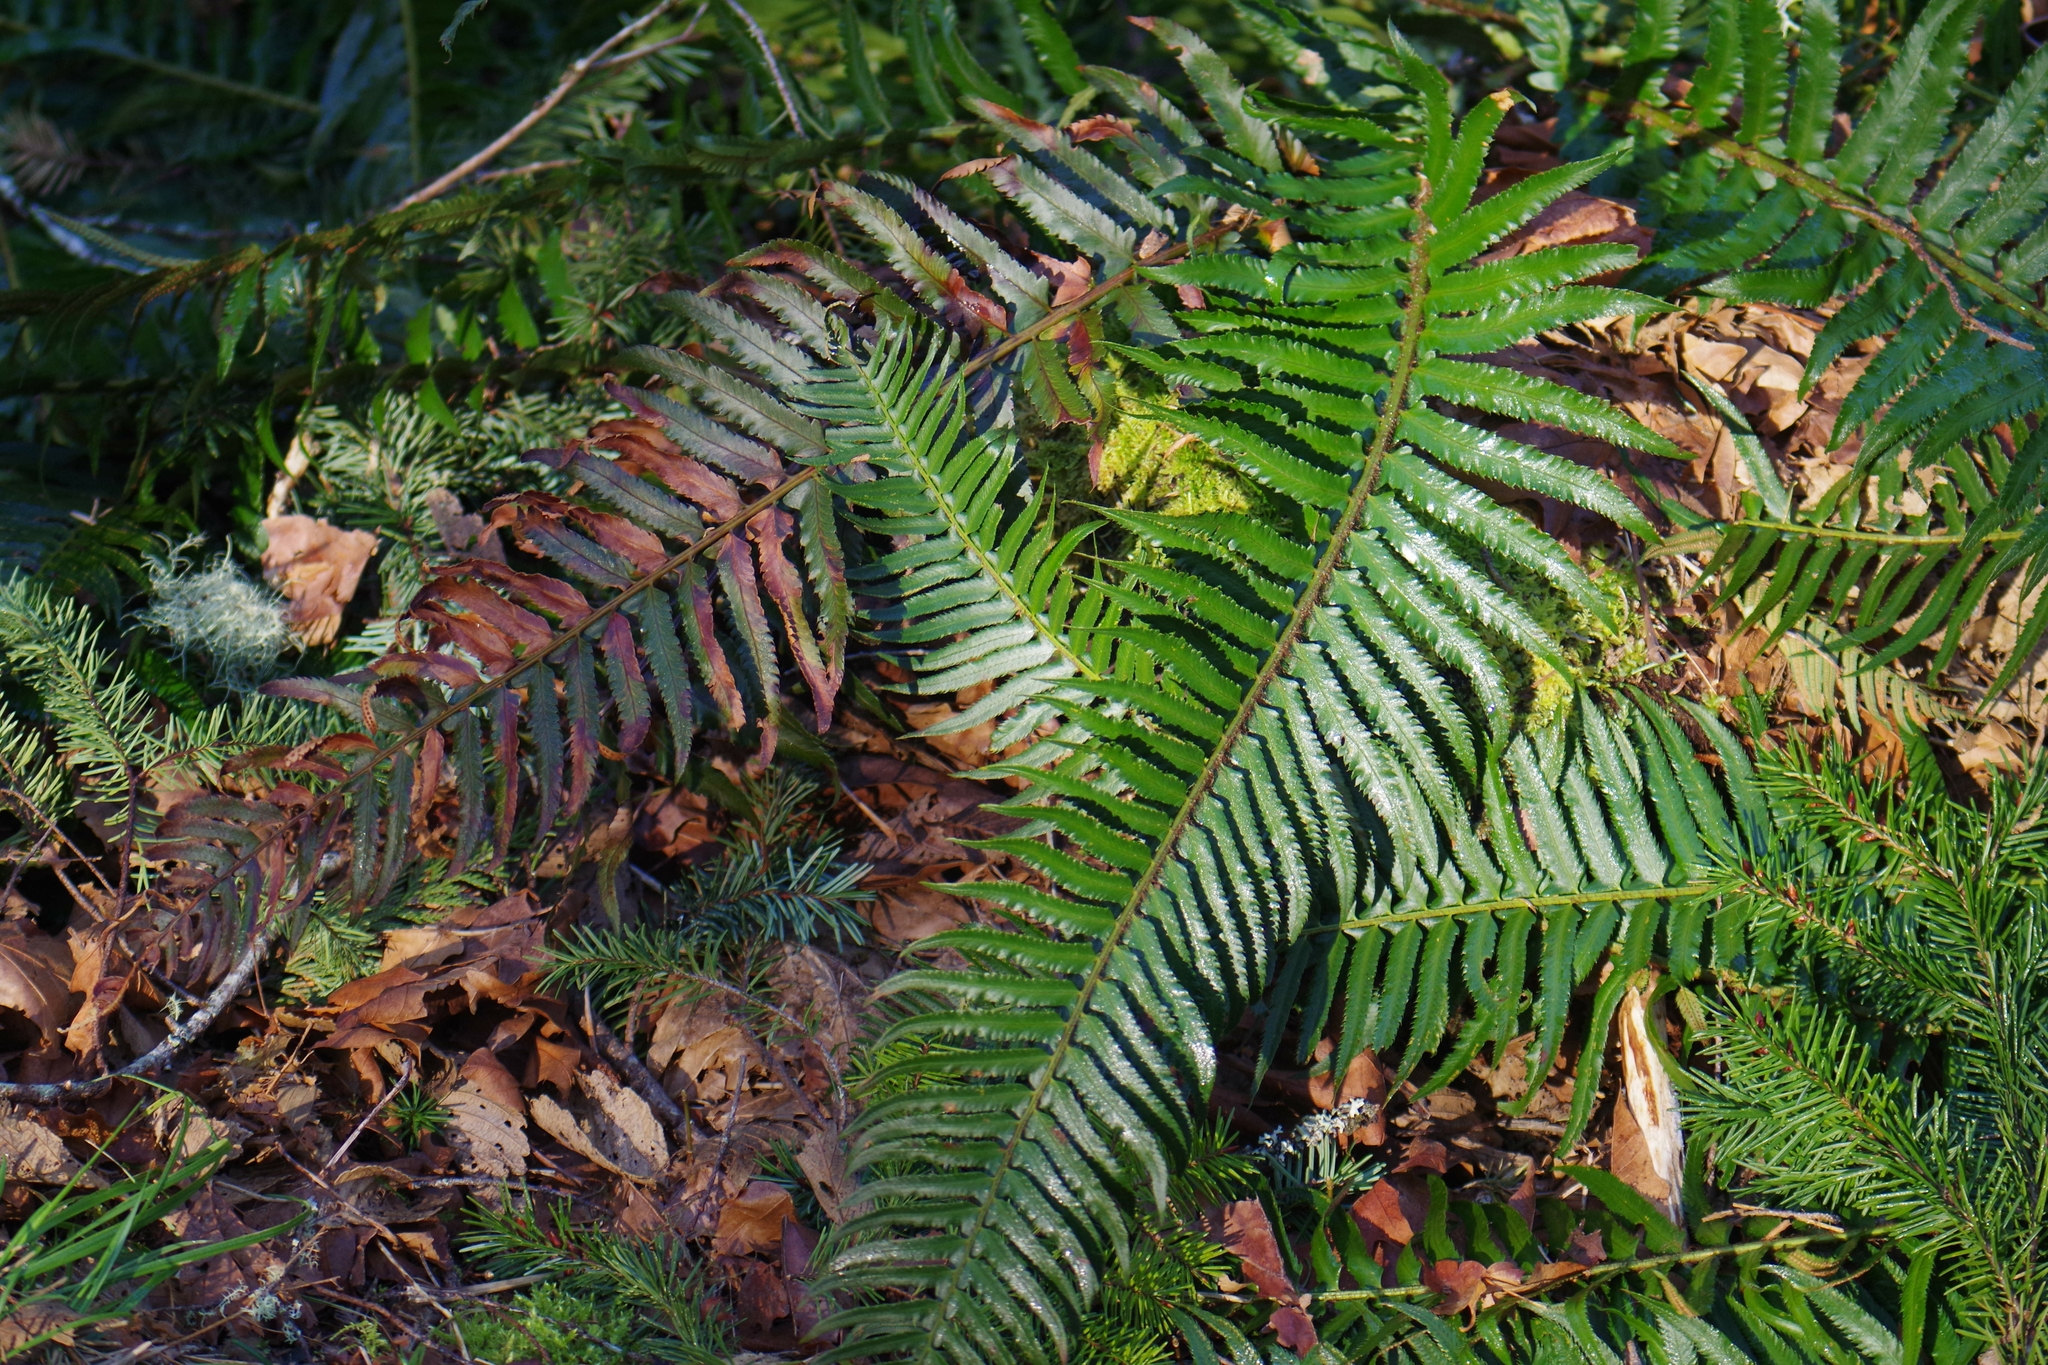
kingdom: Plantae
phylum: Tracheophyta
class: Polypodiopsida
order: Polypodiales
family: Dryopteridaceae
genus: Polystichum
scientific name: Polystichum munitum
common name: Western sword-fern
